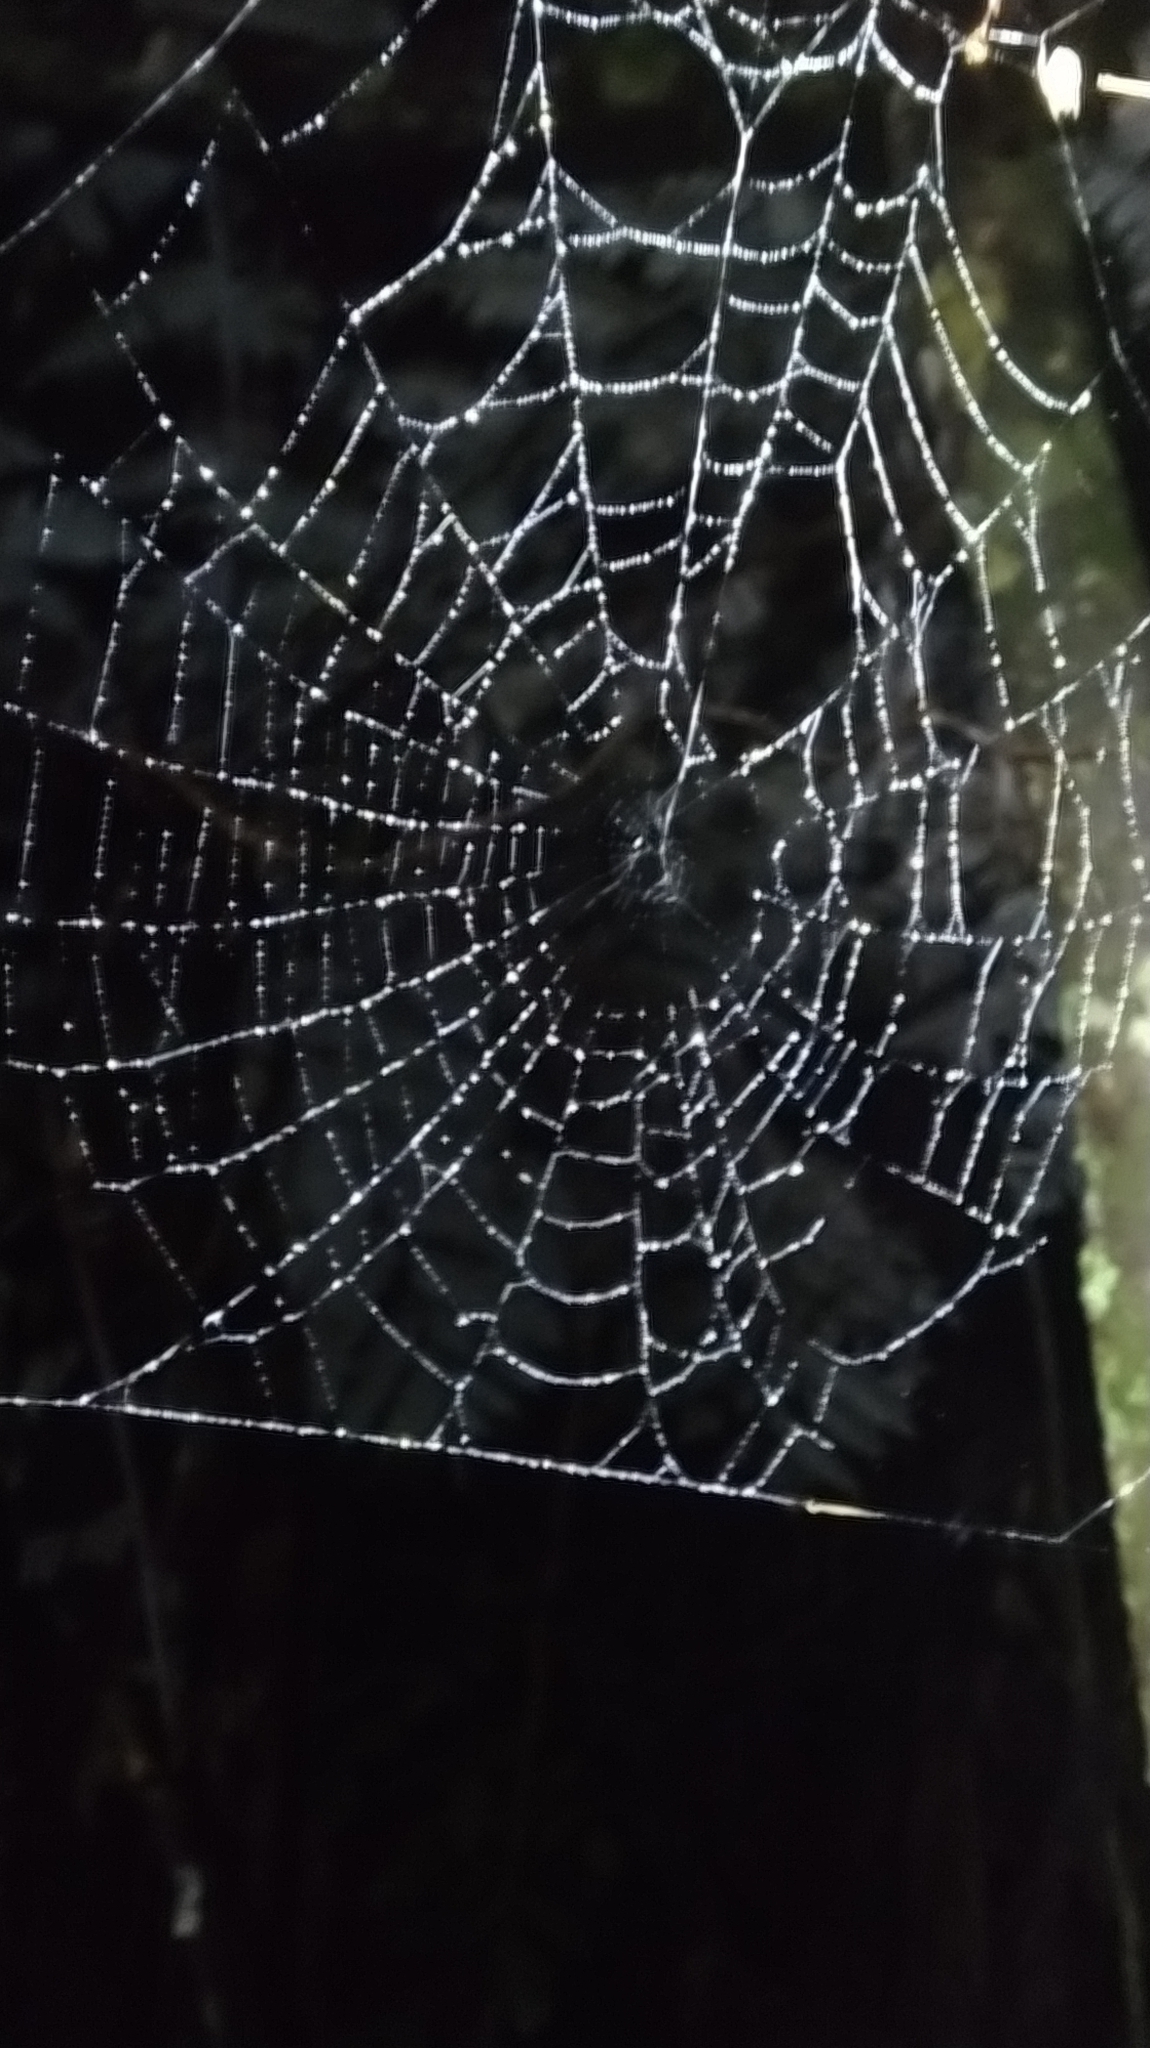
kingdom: Animalia
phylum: Arthropoda
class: Arachnida
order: Araneae
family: Araneidae
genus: Eriophora
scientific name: Eriophora pustulosa
